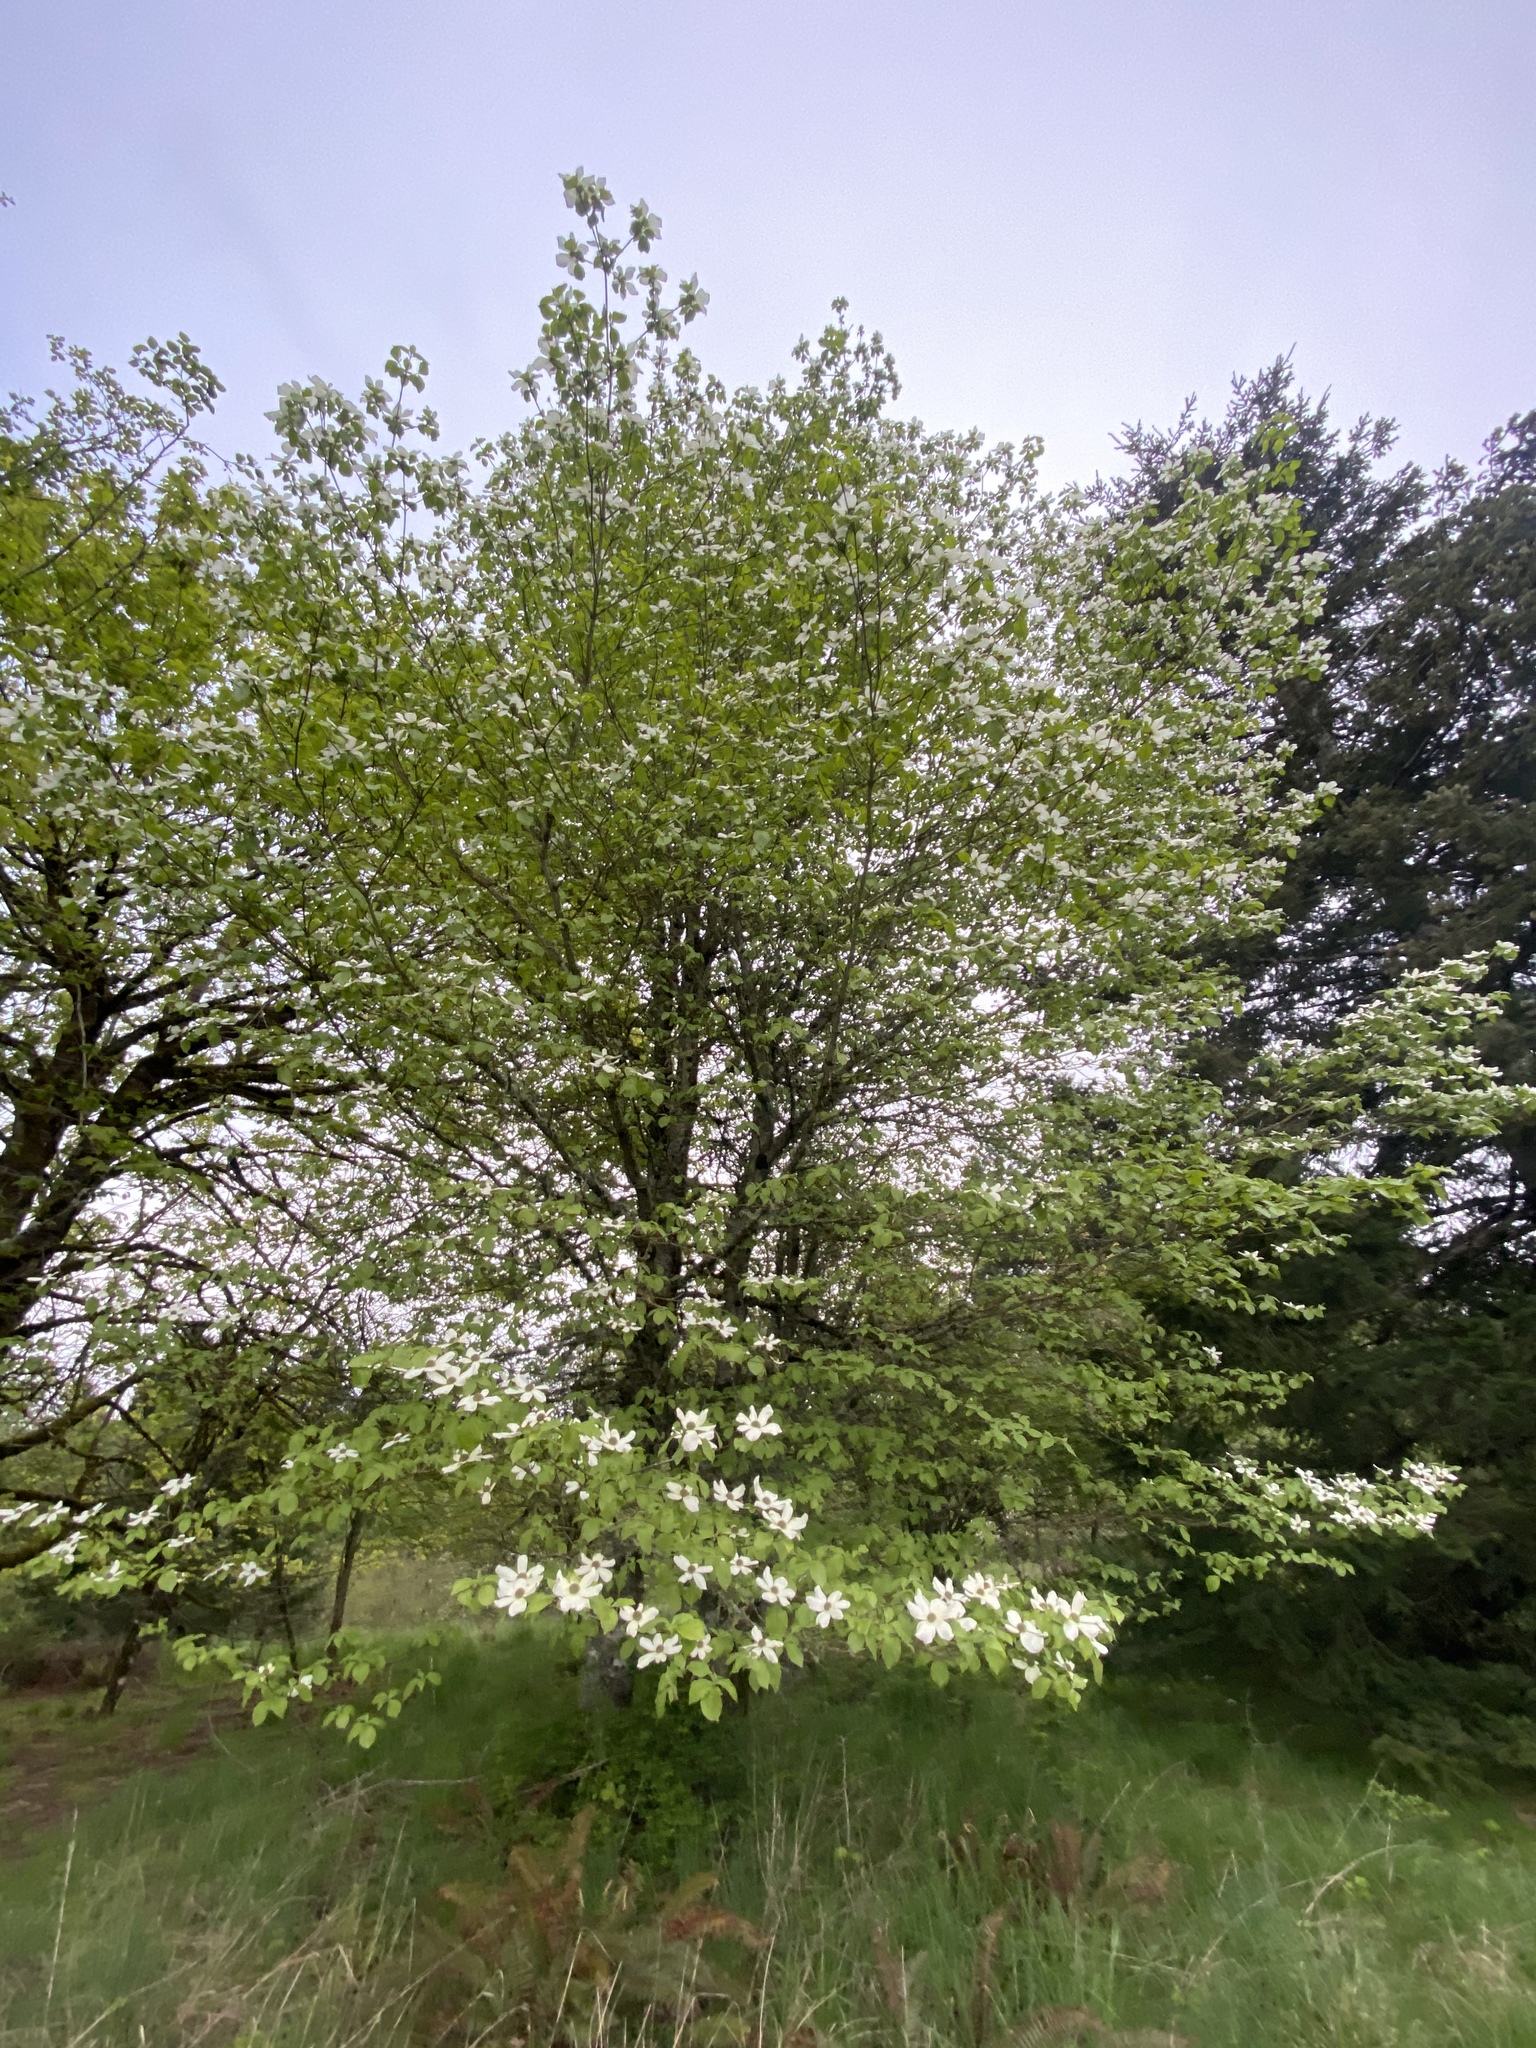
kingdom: Plantae
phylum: Tracheophyta
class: Magnoliopsida
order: Cornales
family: Cornaceae
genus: Cornus
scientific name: Cornus nuttallii
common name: Pacific dogwood
